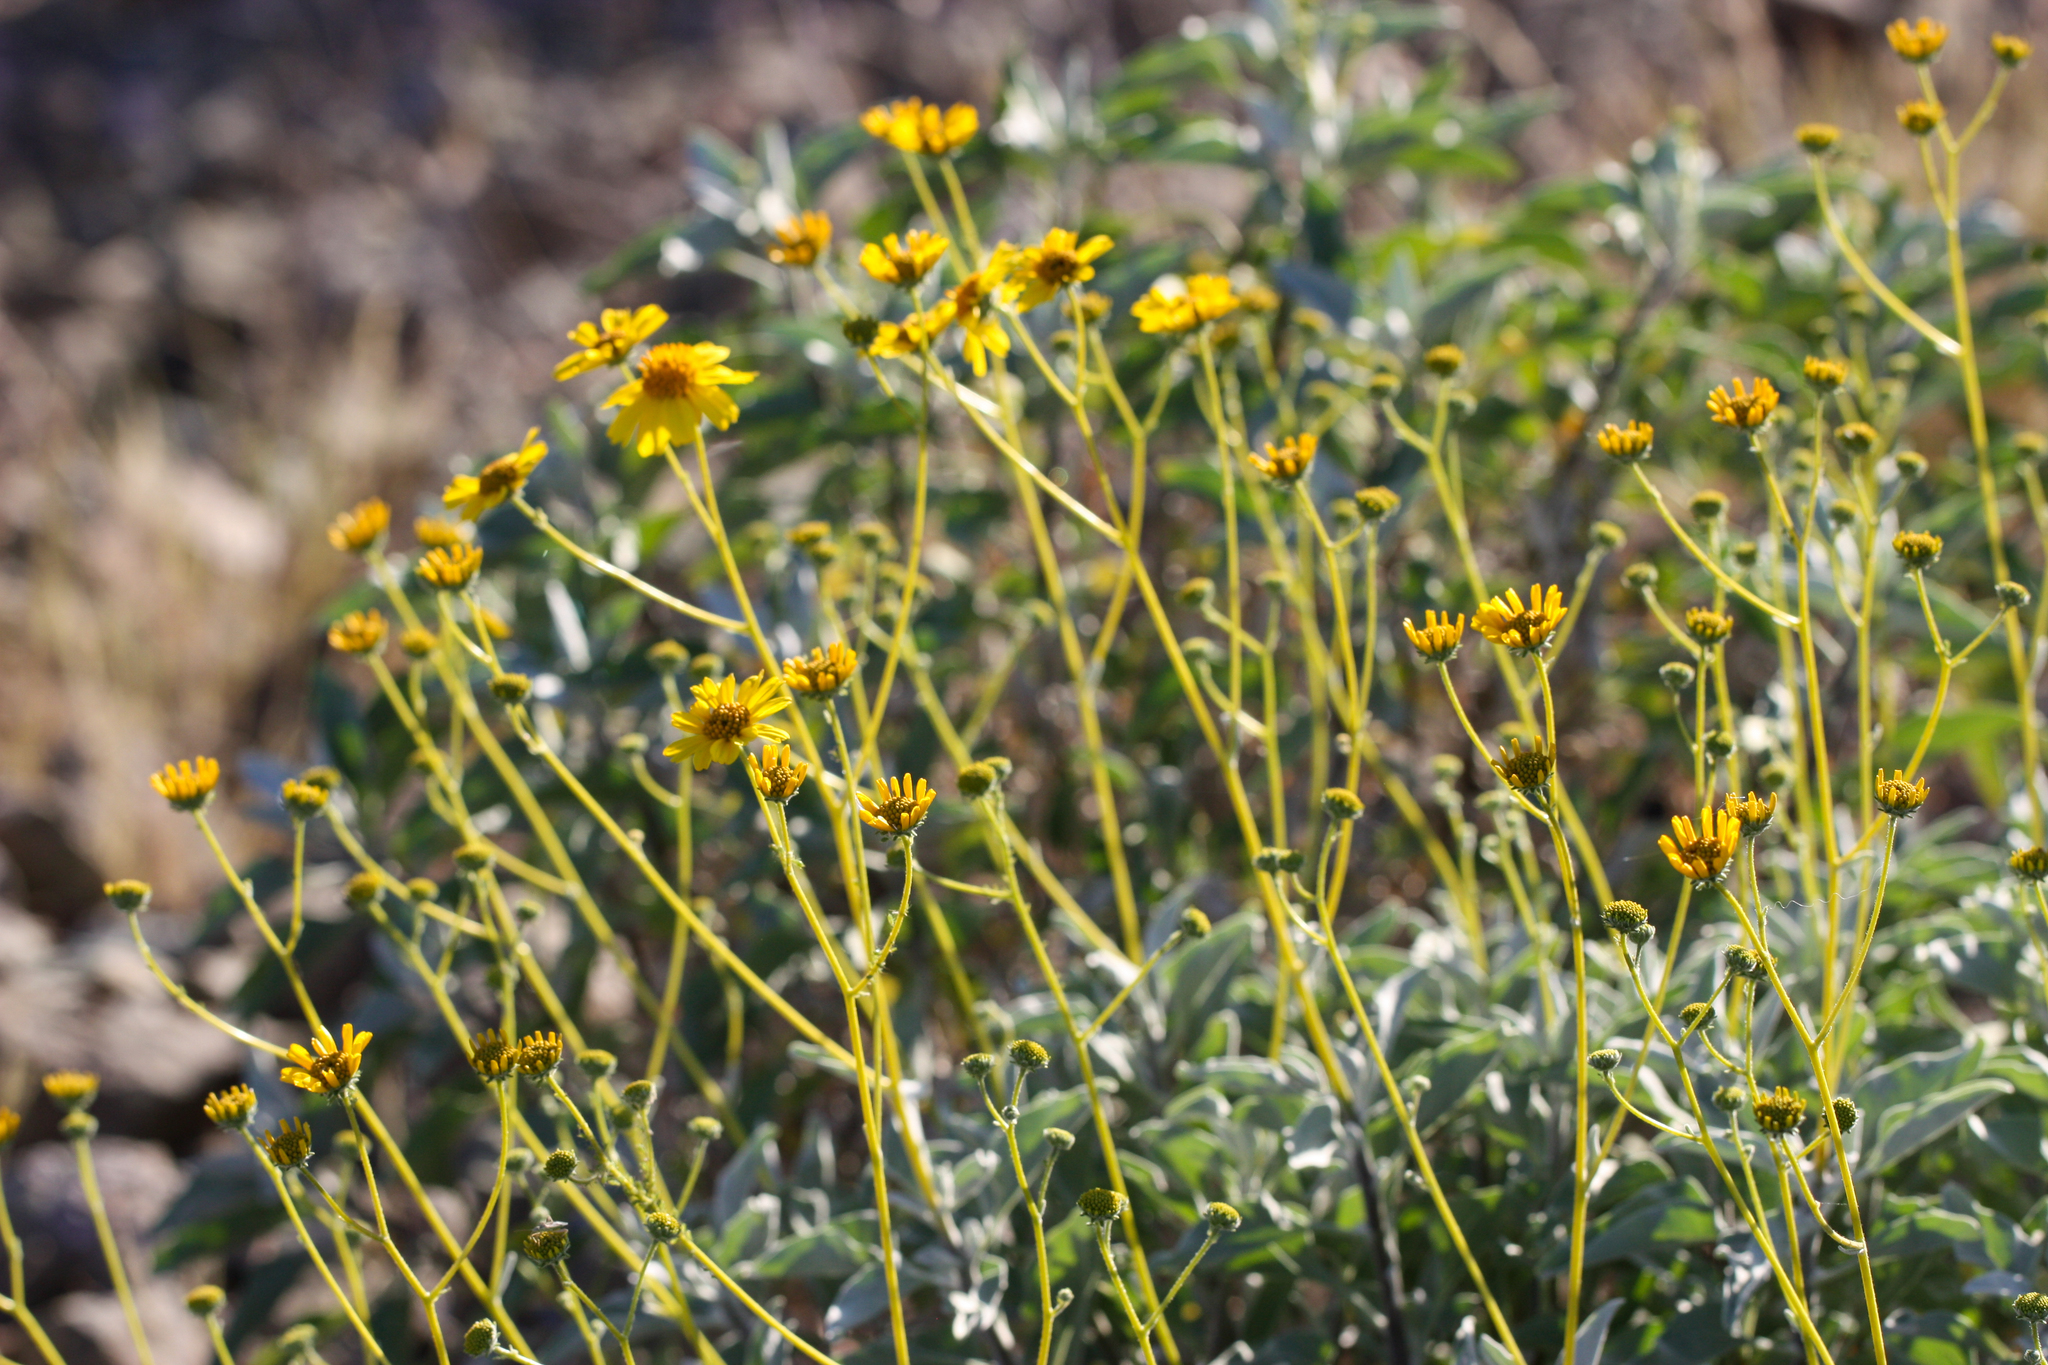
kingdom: Plantae
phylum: Tracheophyta
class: Magnoliopsida
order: Asterales
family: Asteraceae
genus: Encelia
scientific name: Encelia farinosa
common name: Brittlebush
